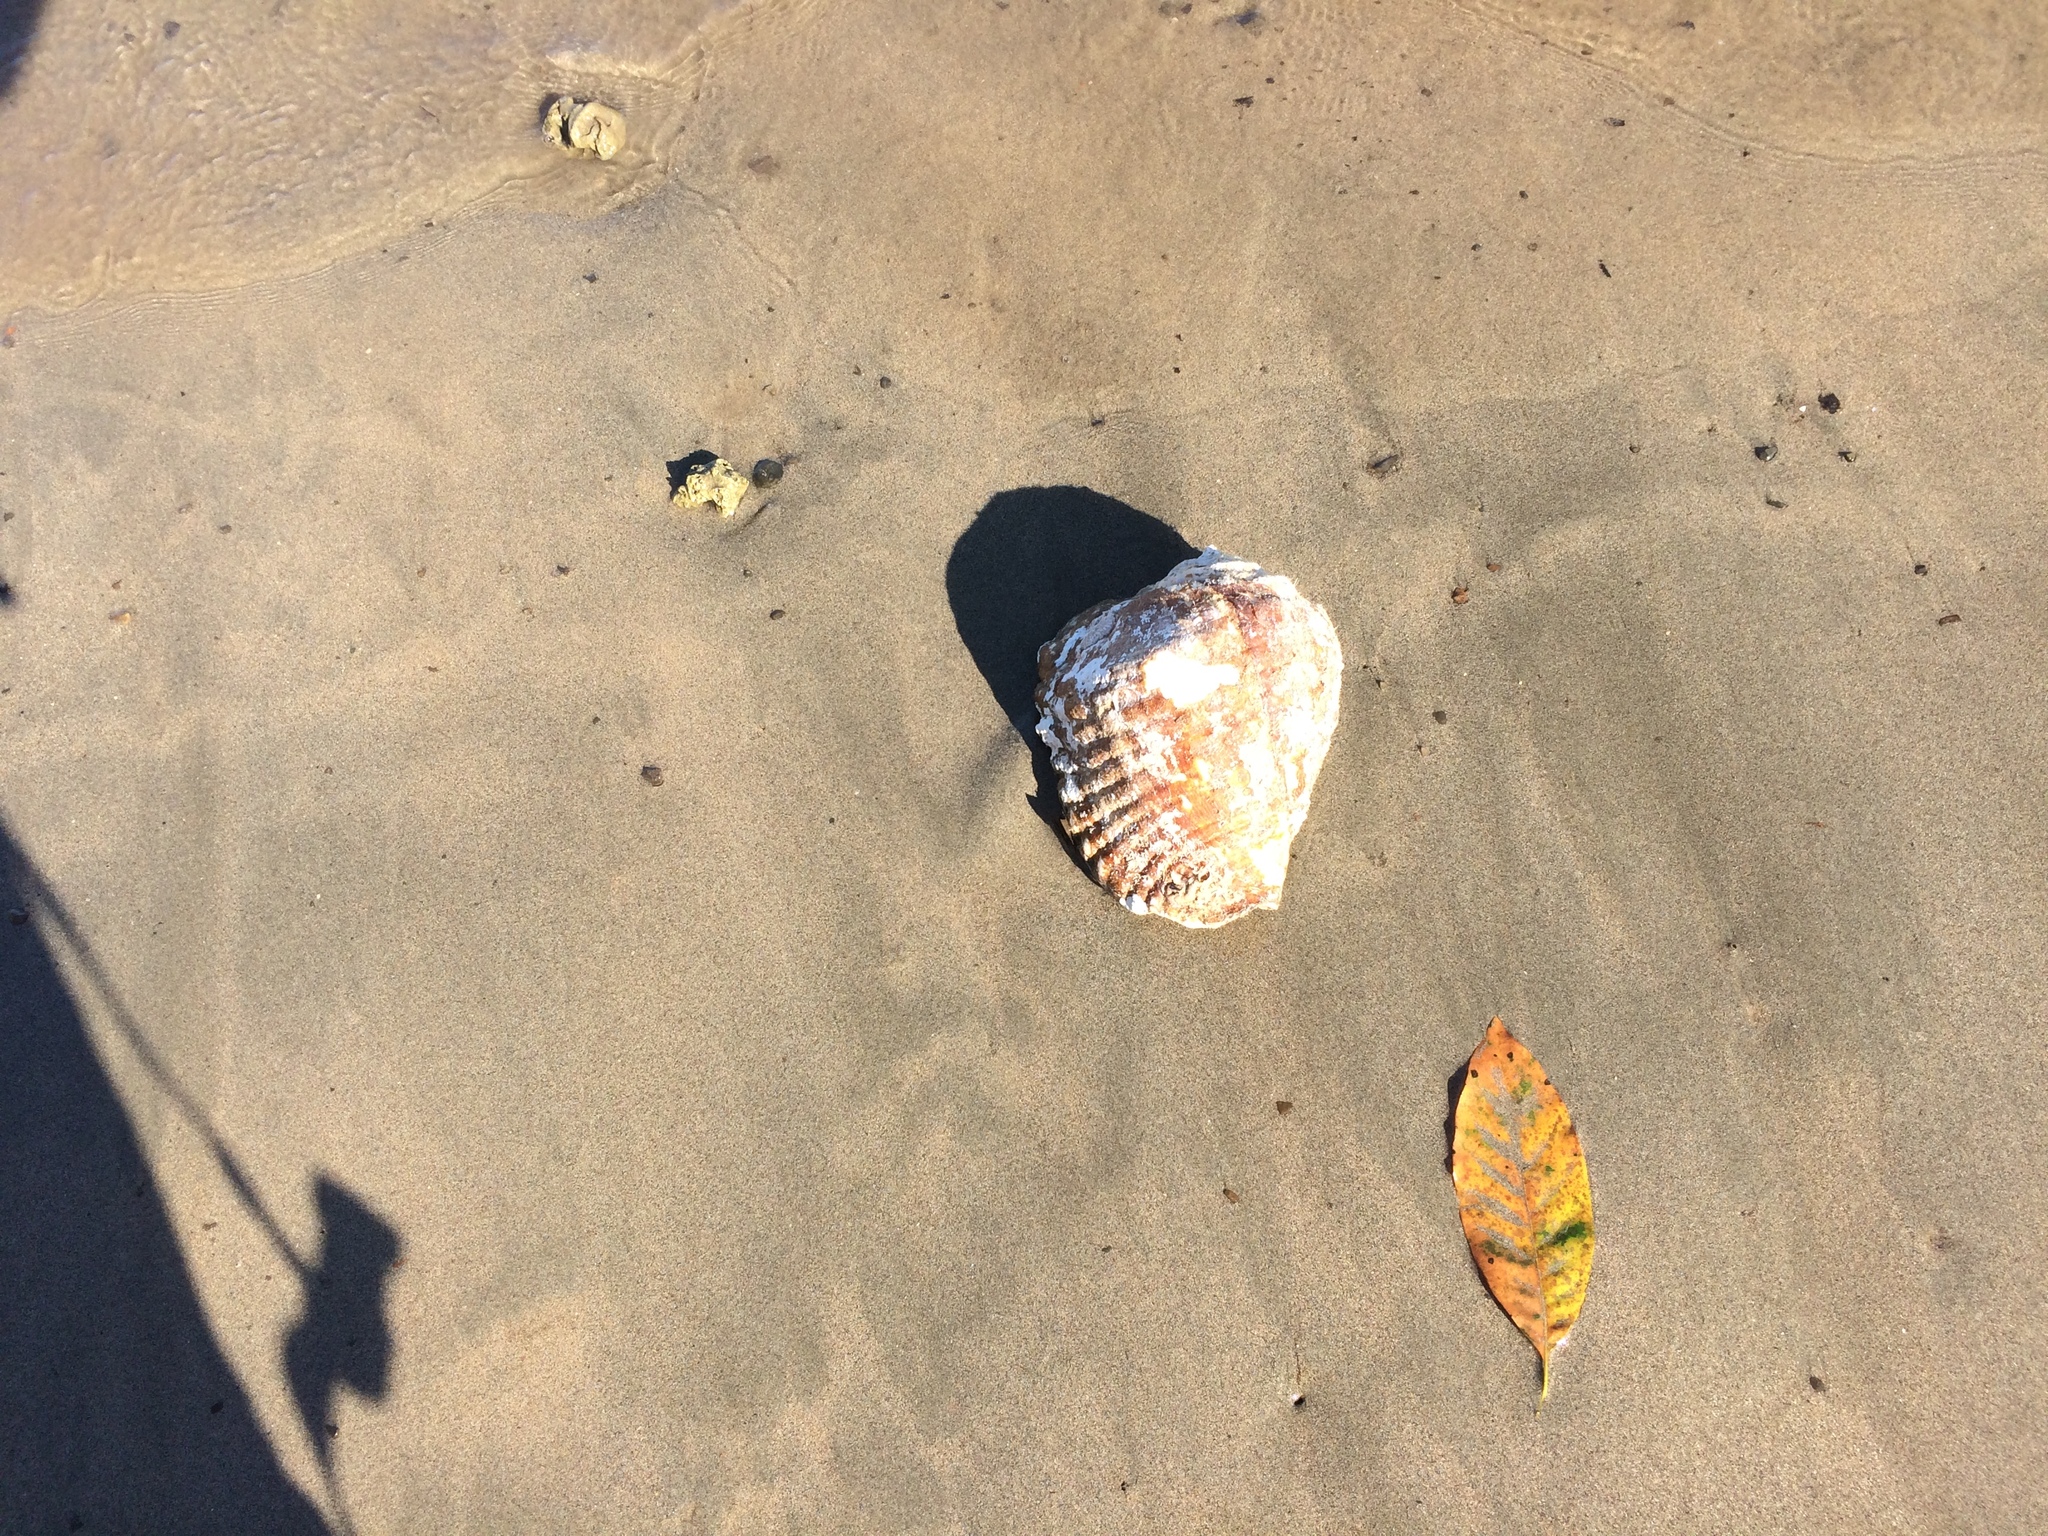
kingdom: Animalia
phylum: Mollusca
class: Gastropoda
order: Littorinimorpha
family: Strombidae
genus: Titanostrombus
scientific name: Titanostrombus galeatus
